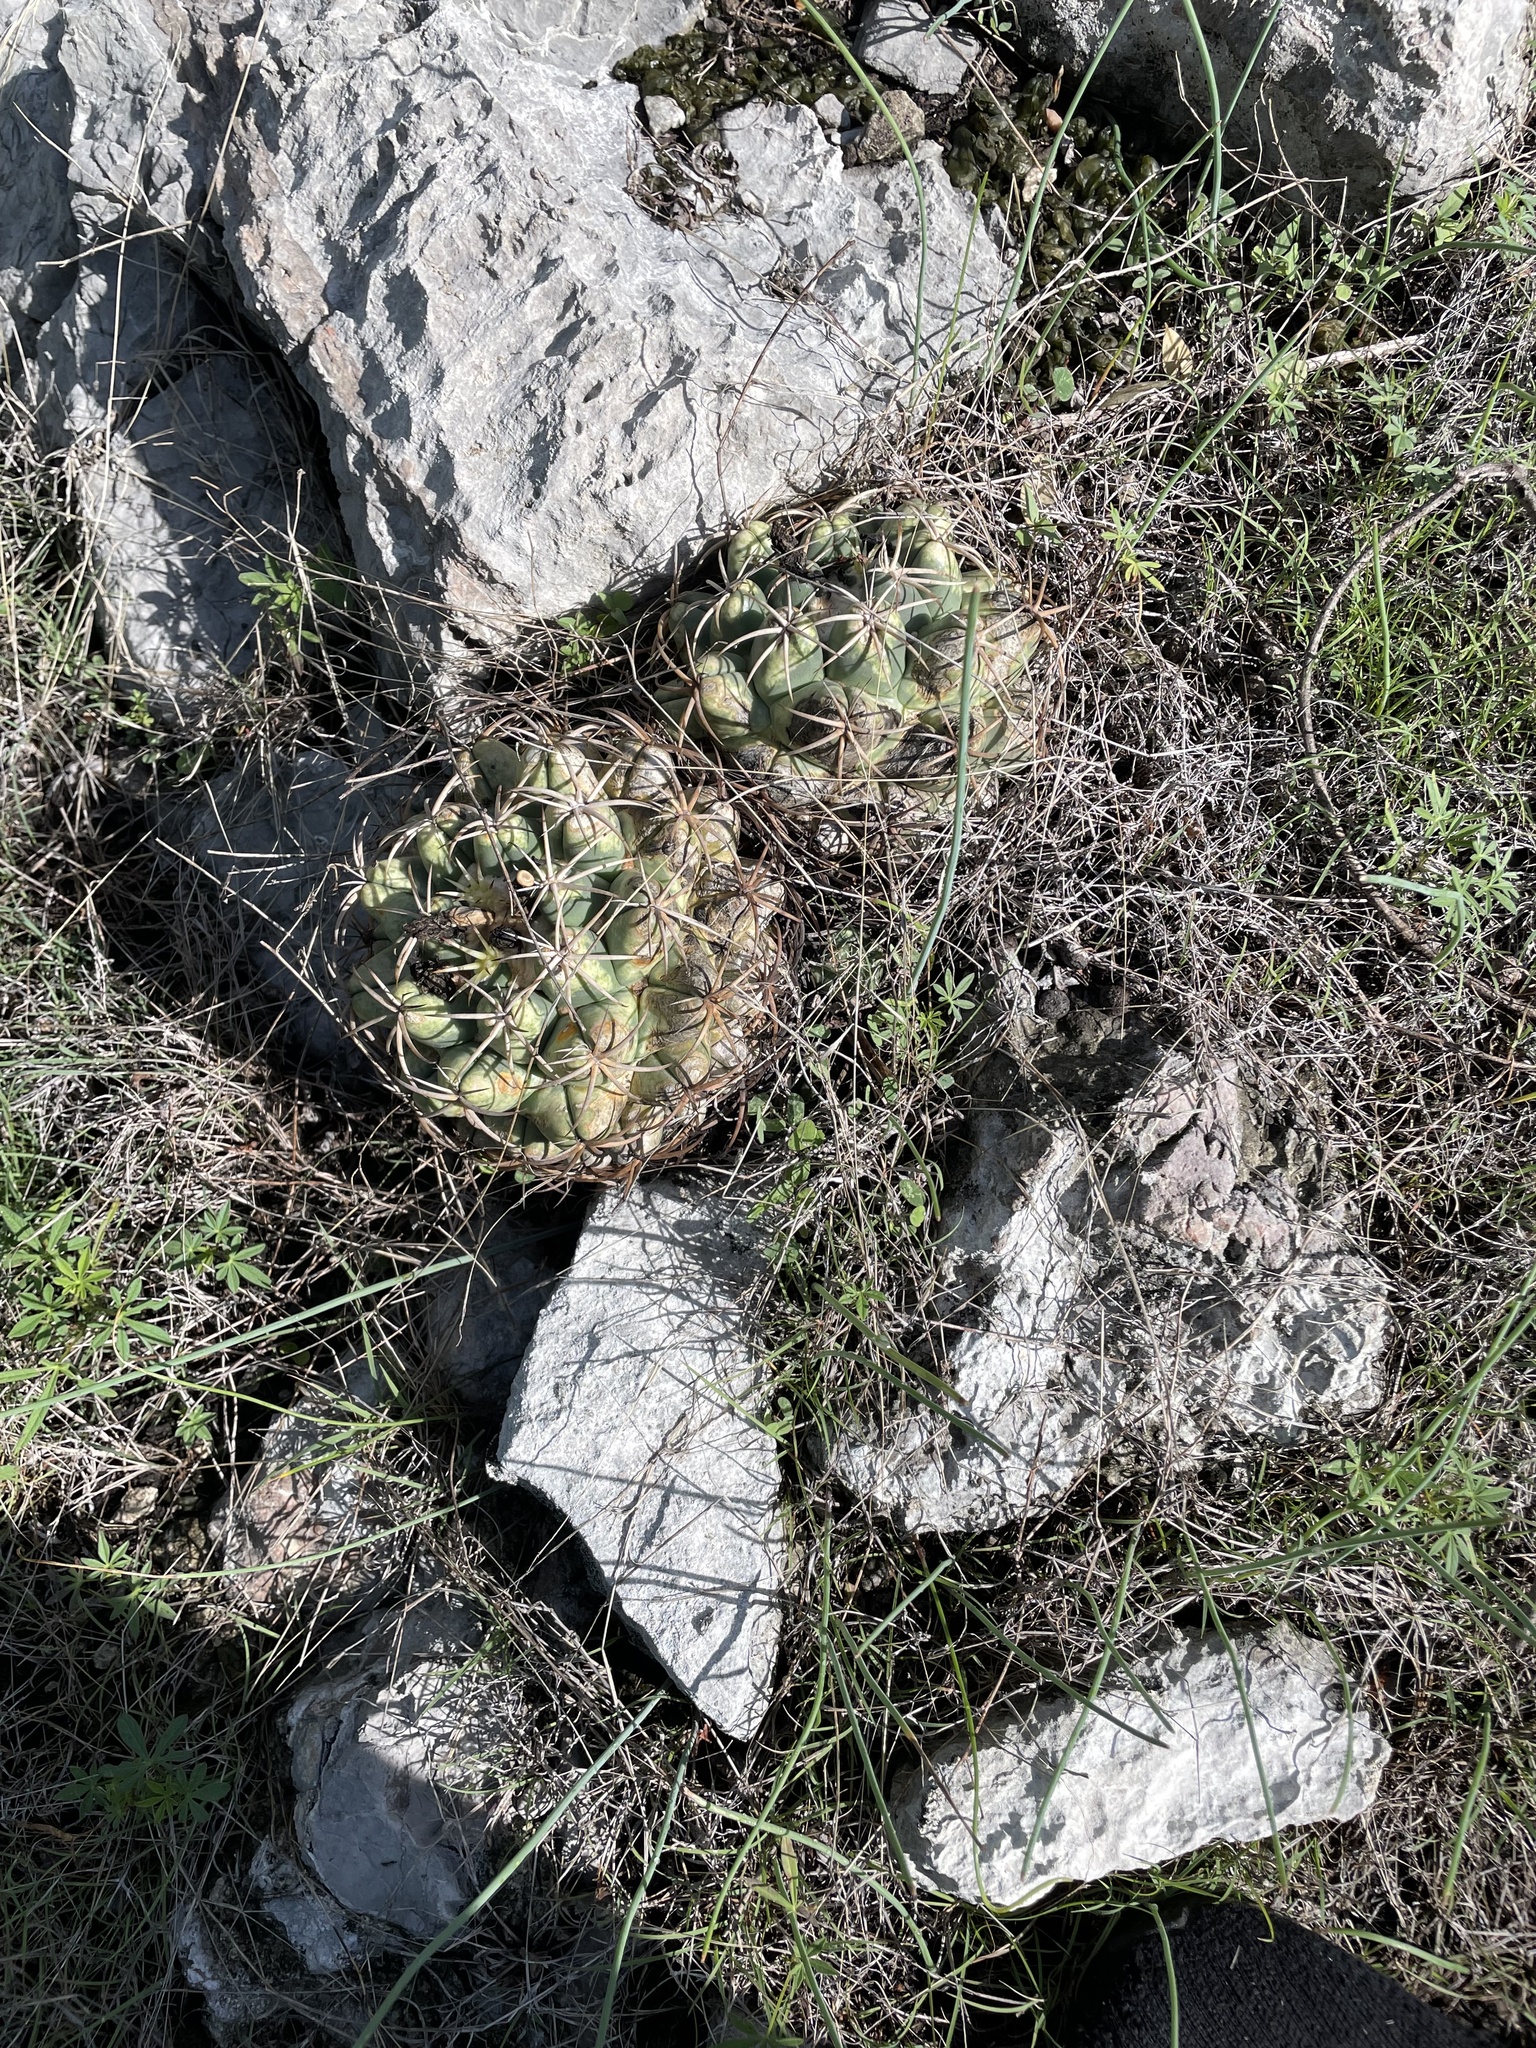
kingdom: Plantae
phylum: Tracheophyta
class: Magnoliopsida
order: Caryophyllales
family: Cactaceae
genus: Coryphantha
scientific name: Coryphantha elephantidens
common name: Elephant's tooth
